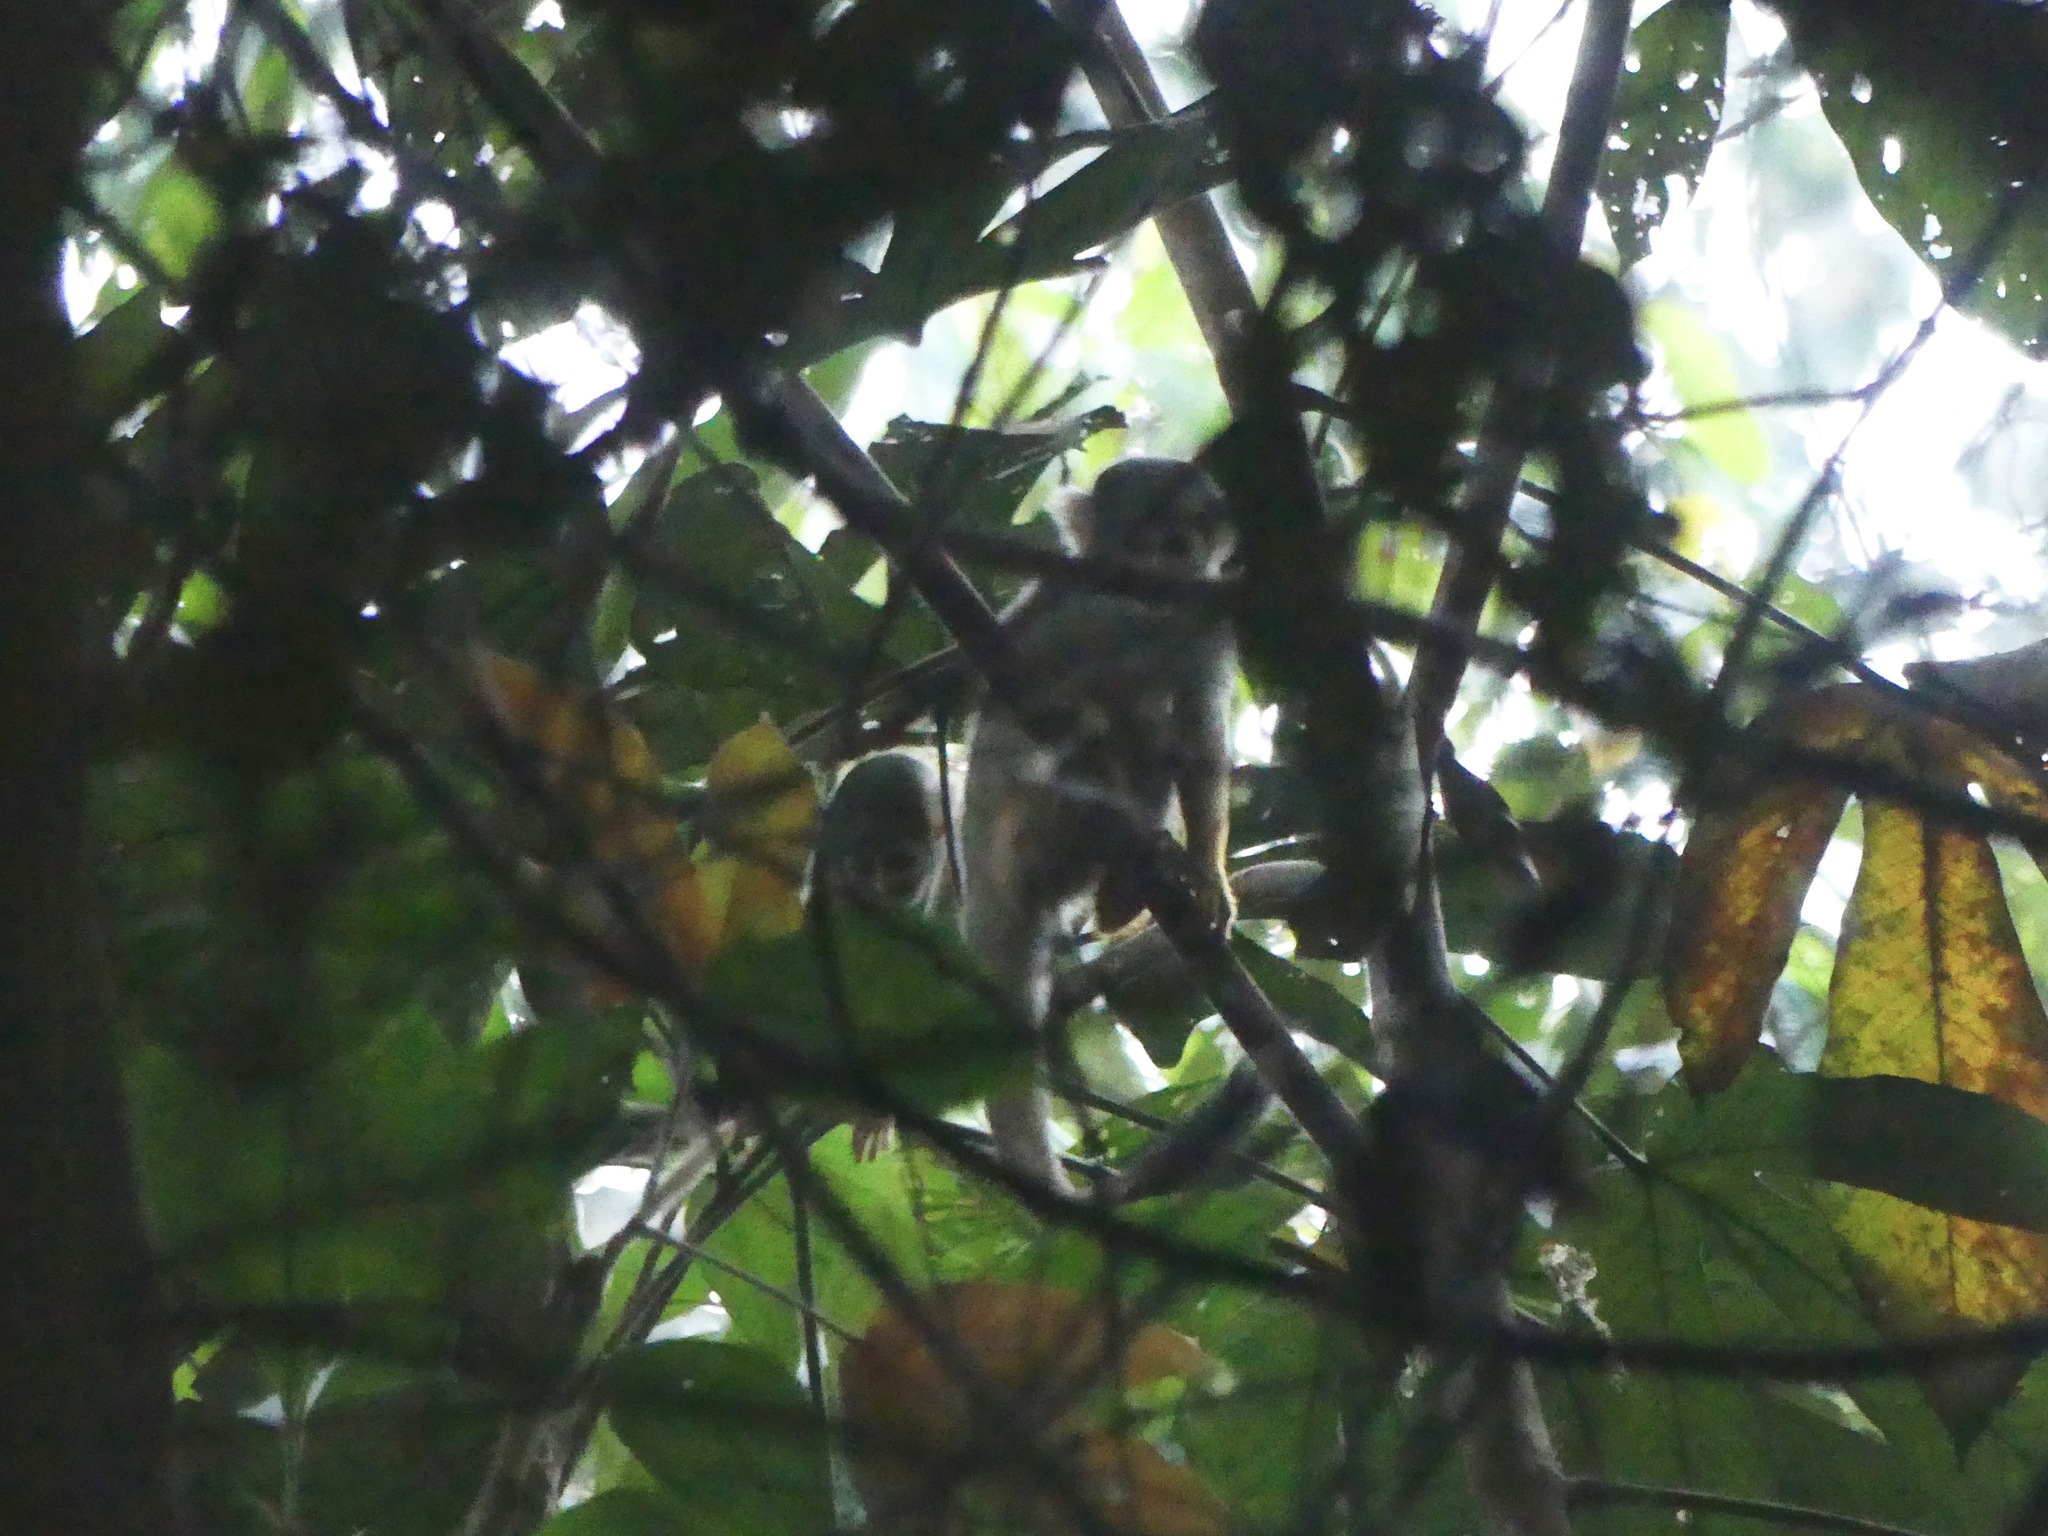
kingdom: Animalia
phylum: Chordata
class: Mammalia
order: Primates
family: Cebidae
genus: Saimiri
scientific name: Saimiri boliviensis
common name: Black-capped squirrel monkey
